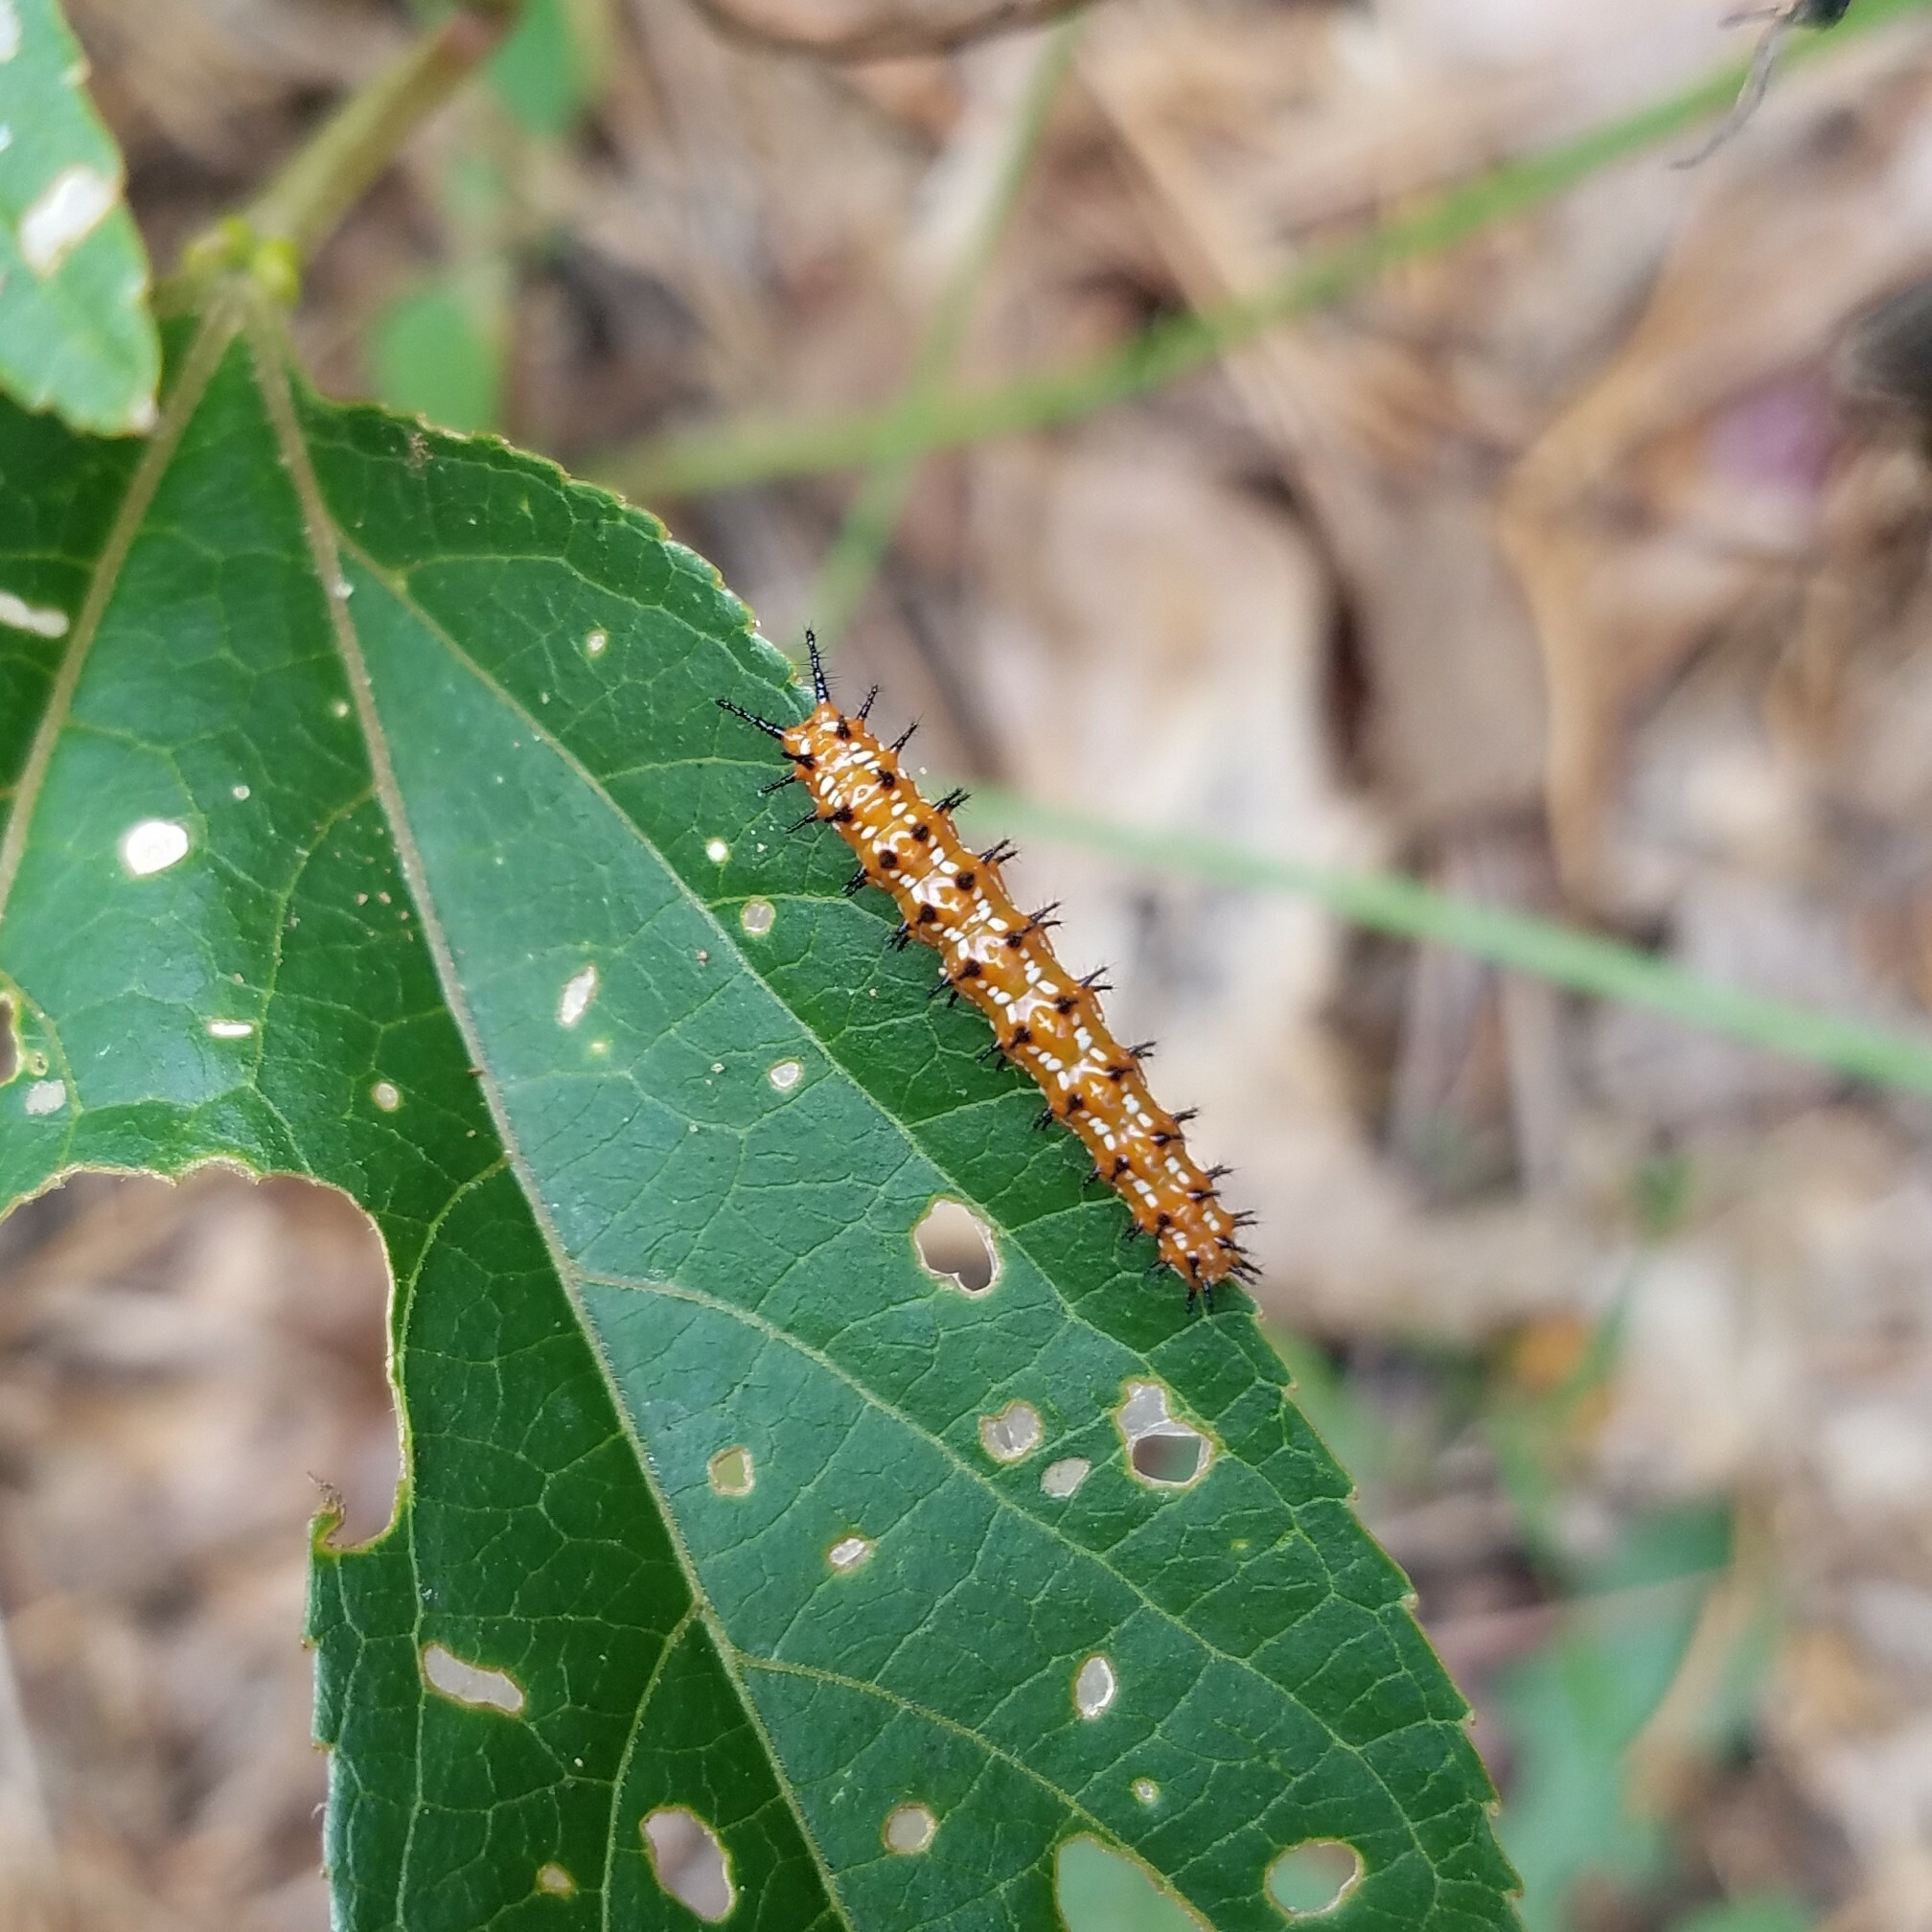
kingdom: Animalia
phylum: Arthropoda
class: Insecta
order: Lepidoptera
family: Nymphalidae
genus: Euptoieta
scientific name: Euptoieta claudia
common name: Variegated fritillary
